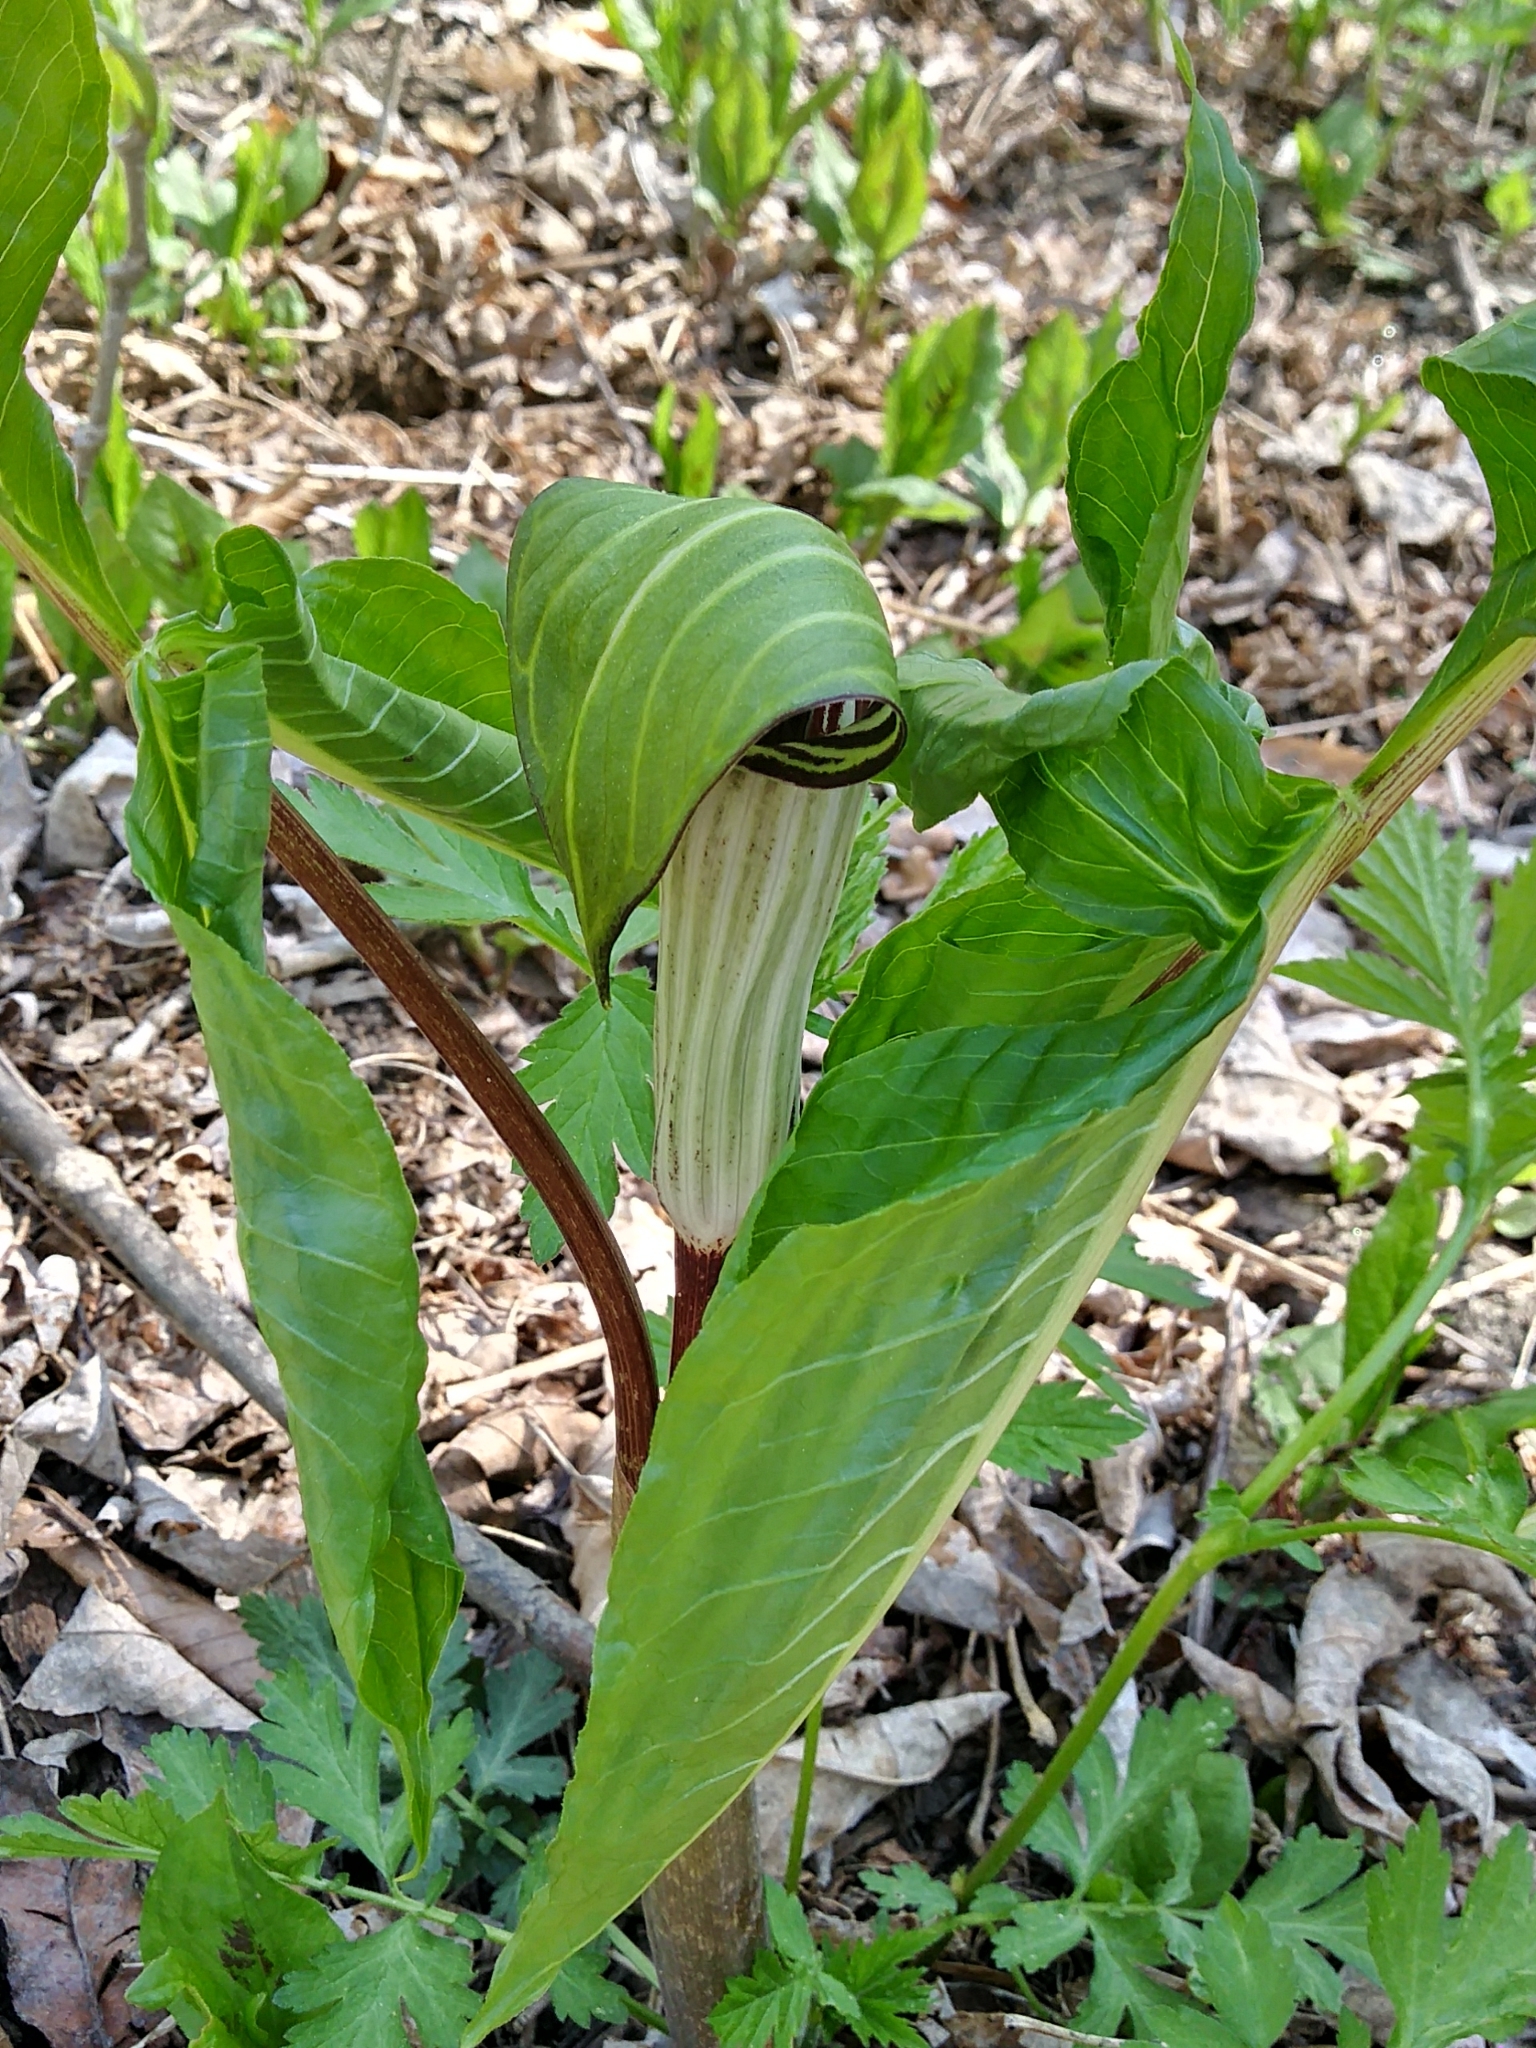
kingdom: Plantae
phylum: Tracheophyta
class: Liliopsida
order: Alismatales
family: Araceae
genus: Arisaema
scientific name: Arisaema triphyllum
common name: Jack-in-the-pulpit
